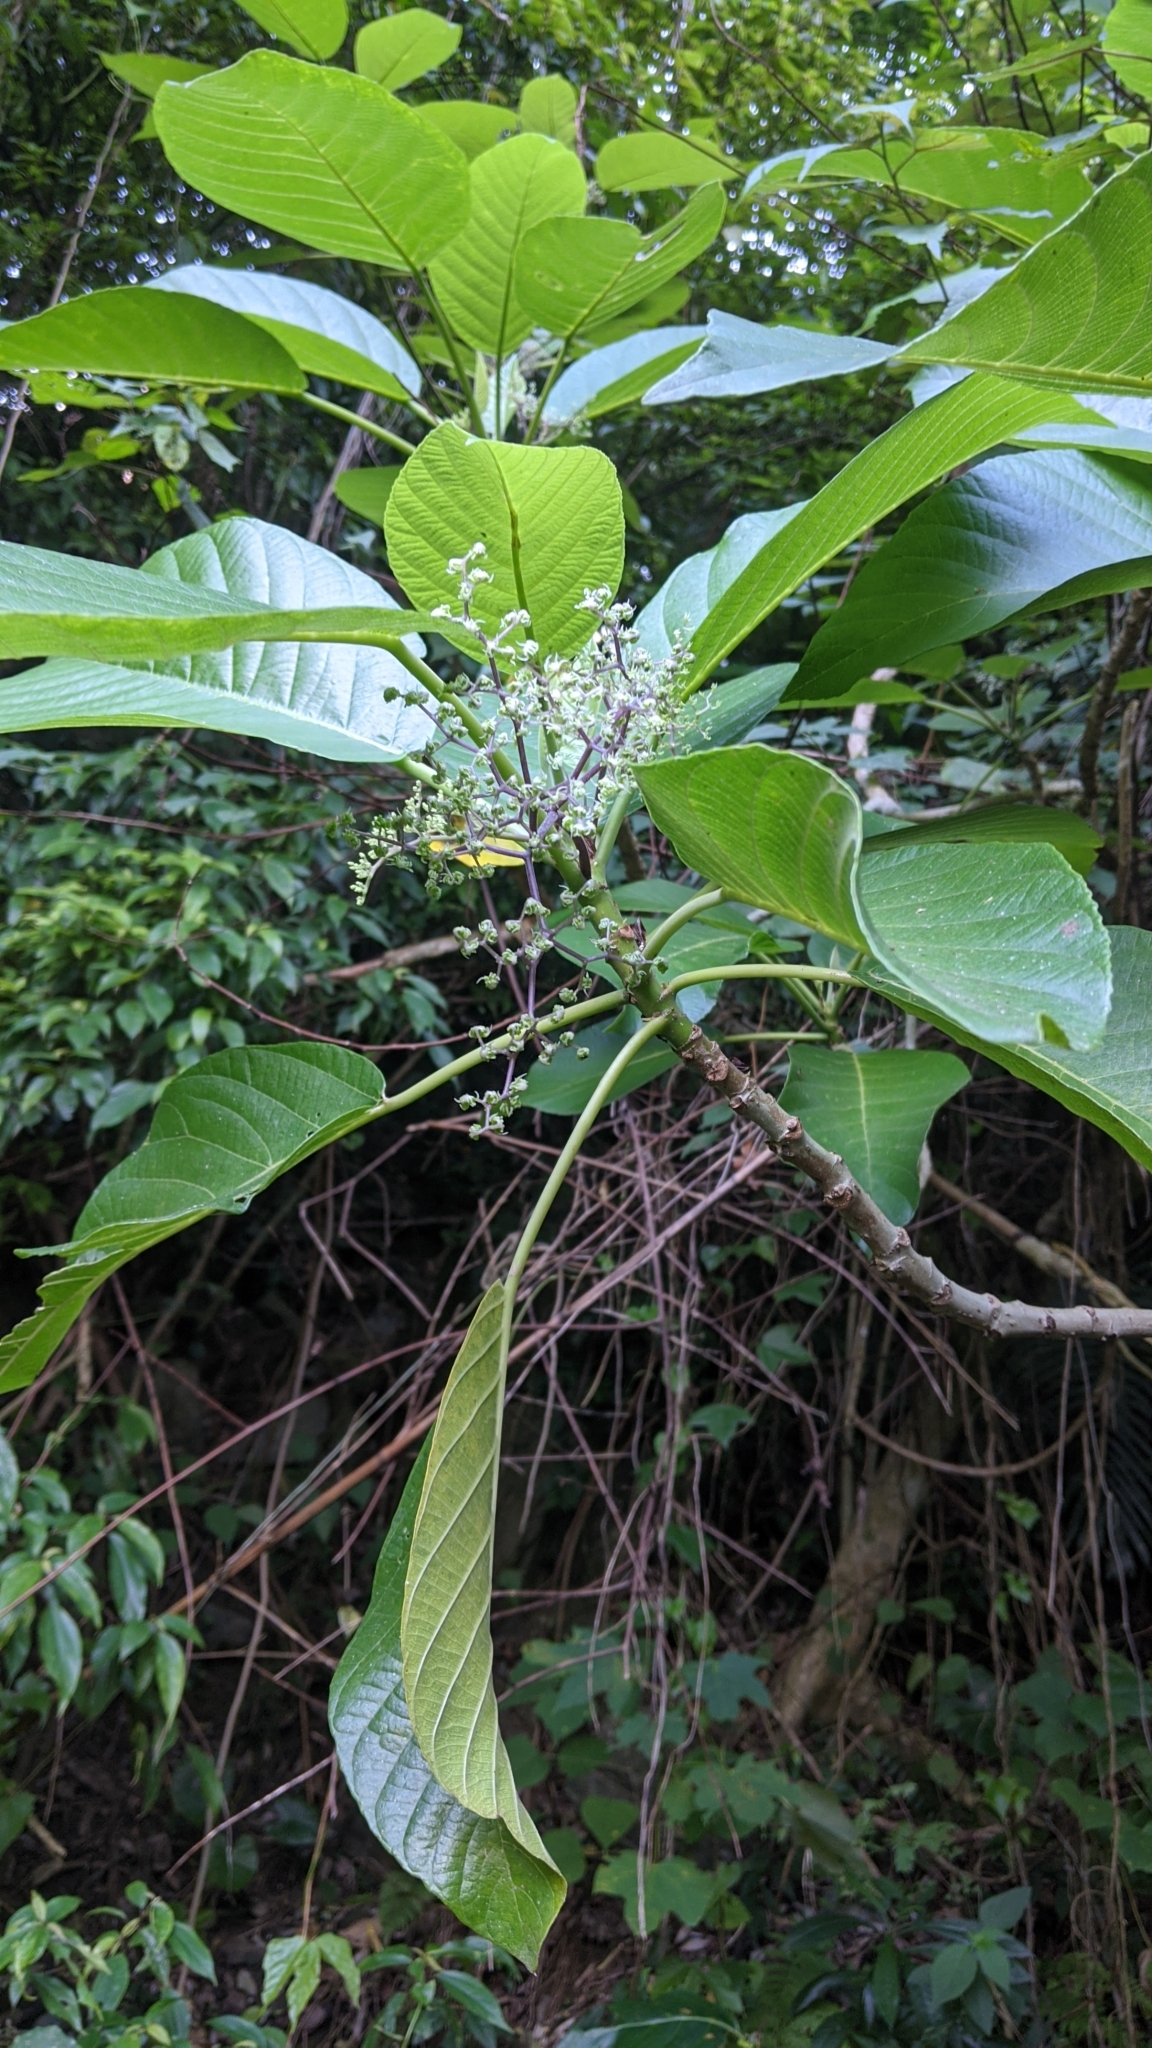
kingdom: Plantae
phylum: Tracheophyta
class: Magnoliopsida
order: Rosales
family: Urticaceae
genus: Dendrocnide
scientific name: Dendrocnide meyeniana
